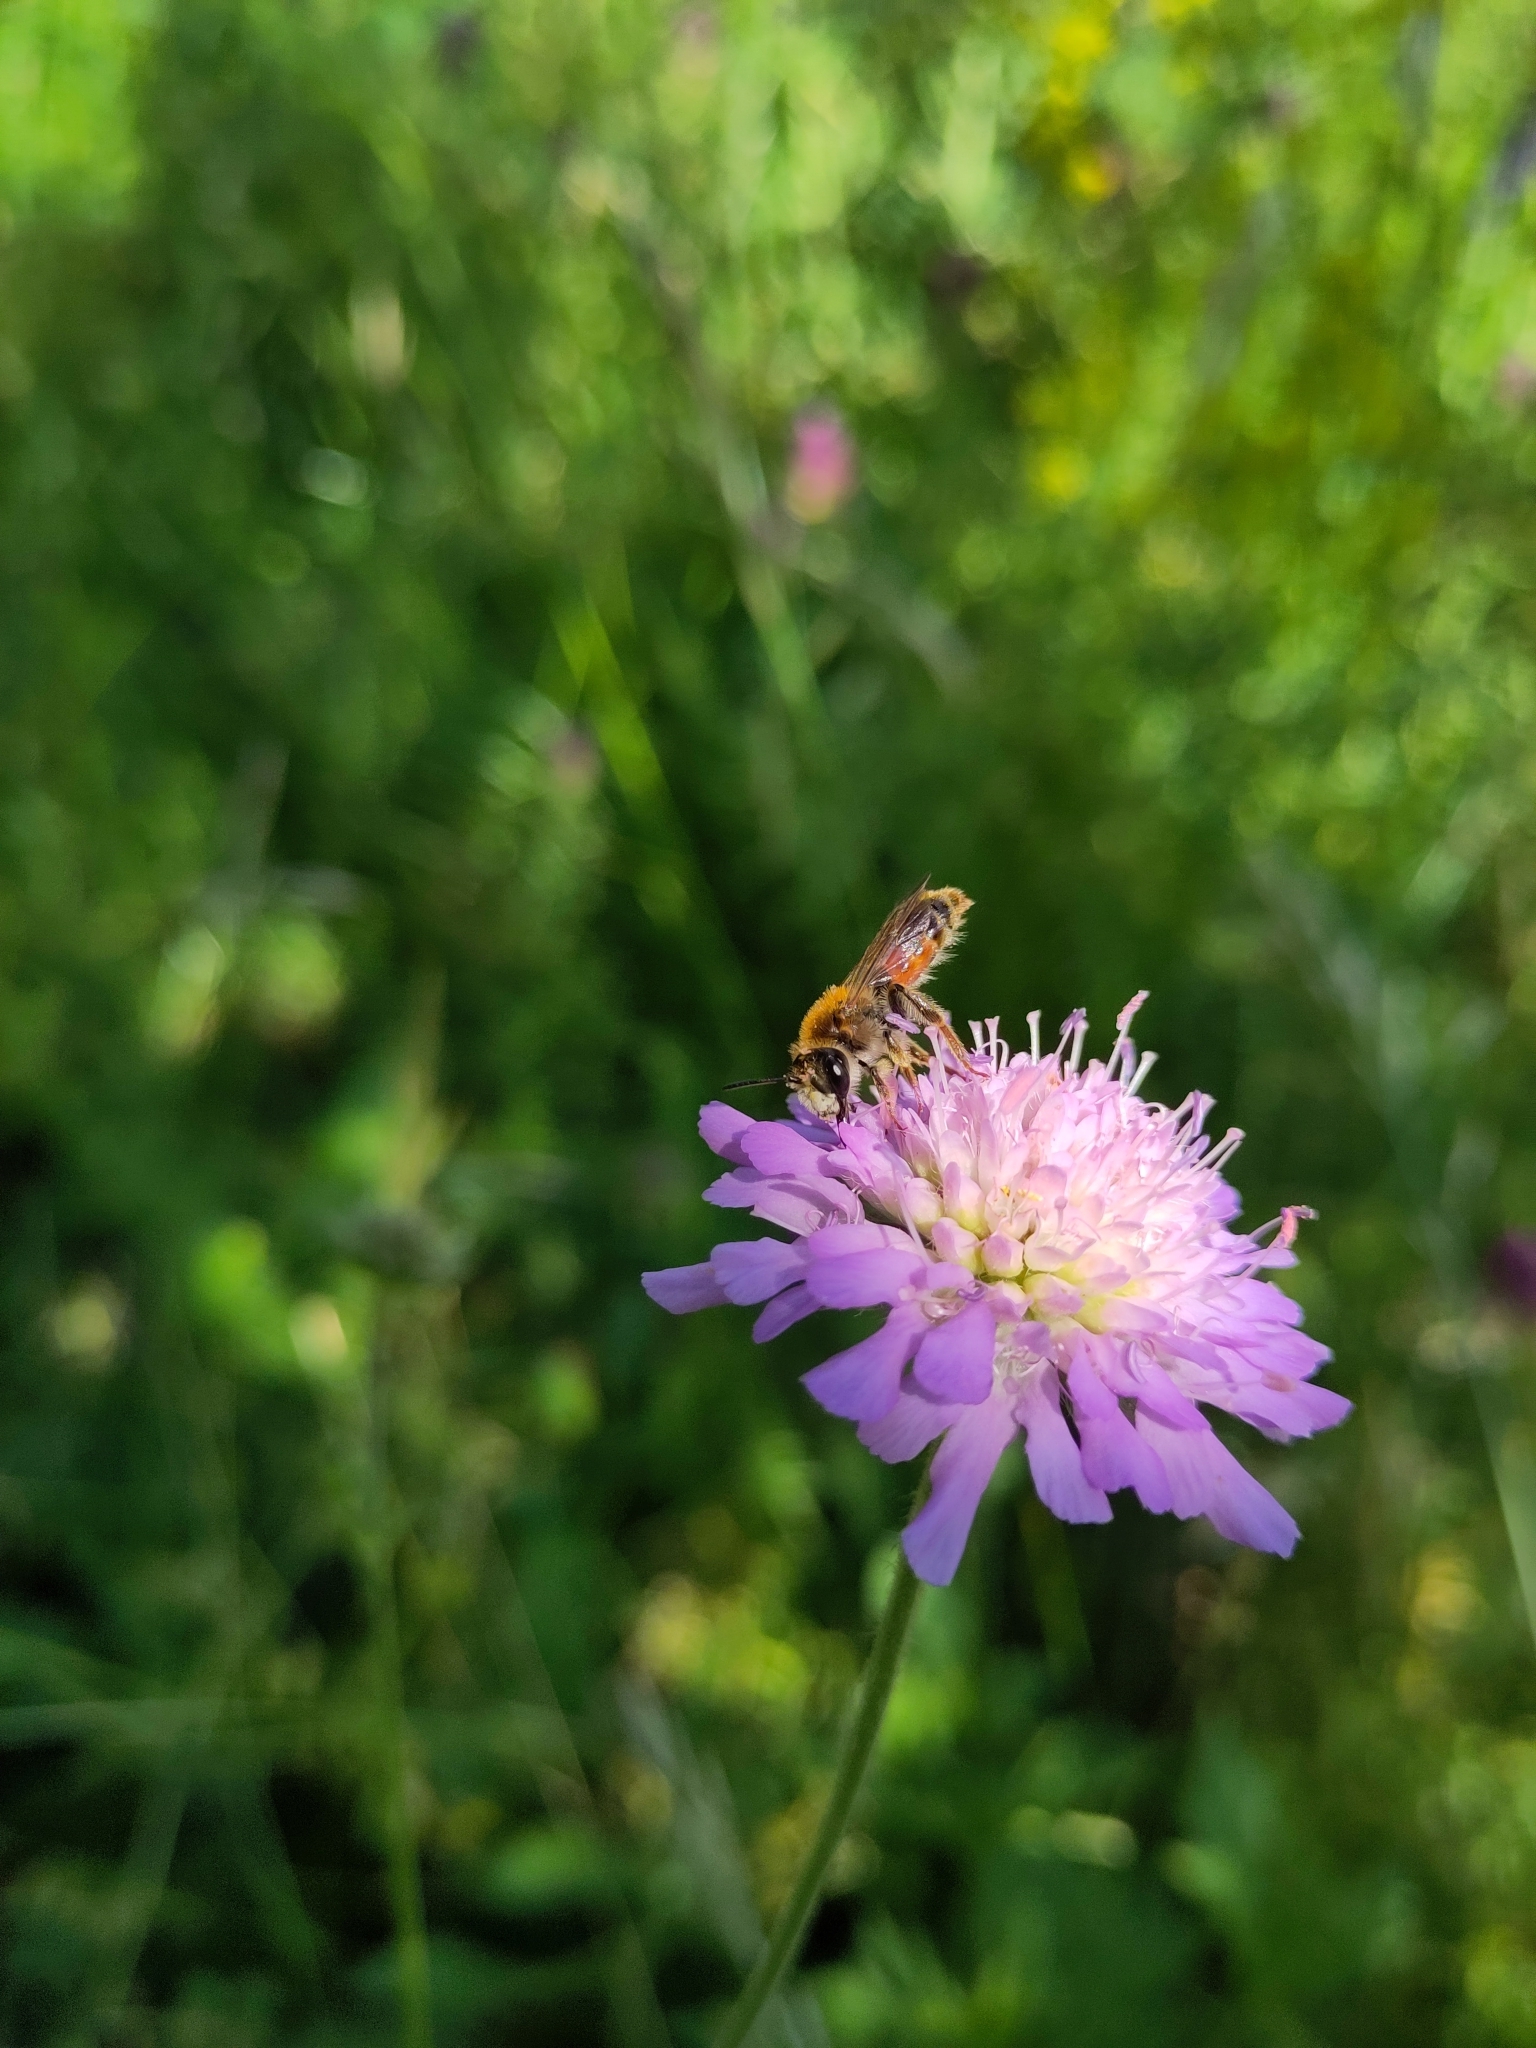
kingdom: Animalia
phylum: Arthropoda
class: Insecta
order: Hymenoptera
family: Andrenidae
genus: Andrena
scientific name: Andrena hattorfiana
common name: Large scabious mining bee
